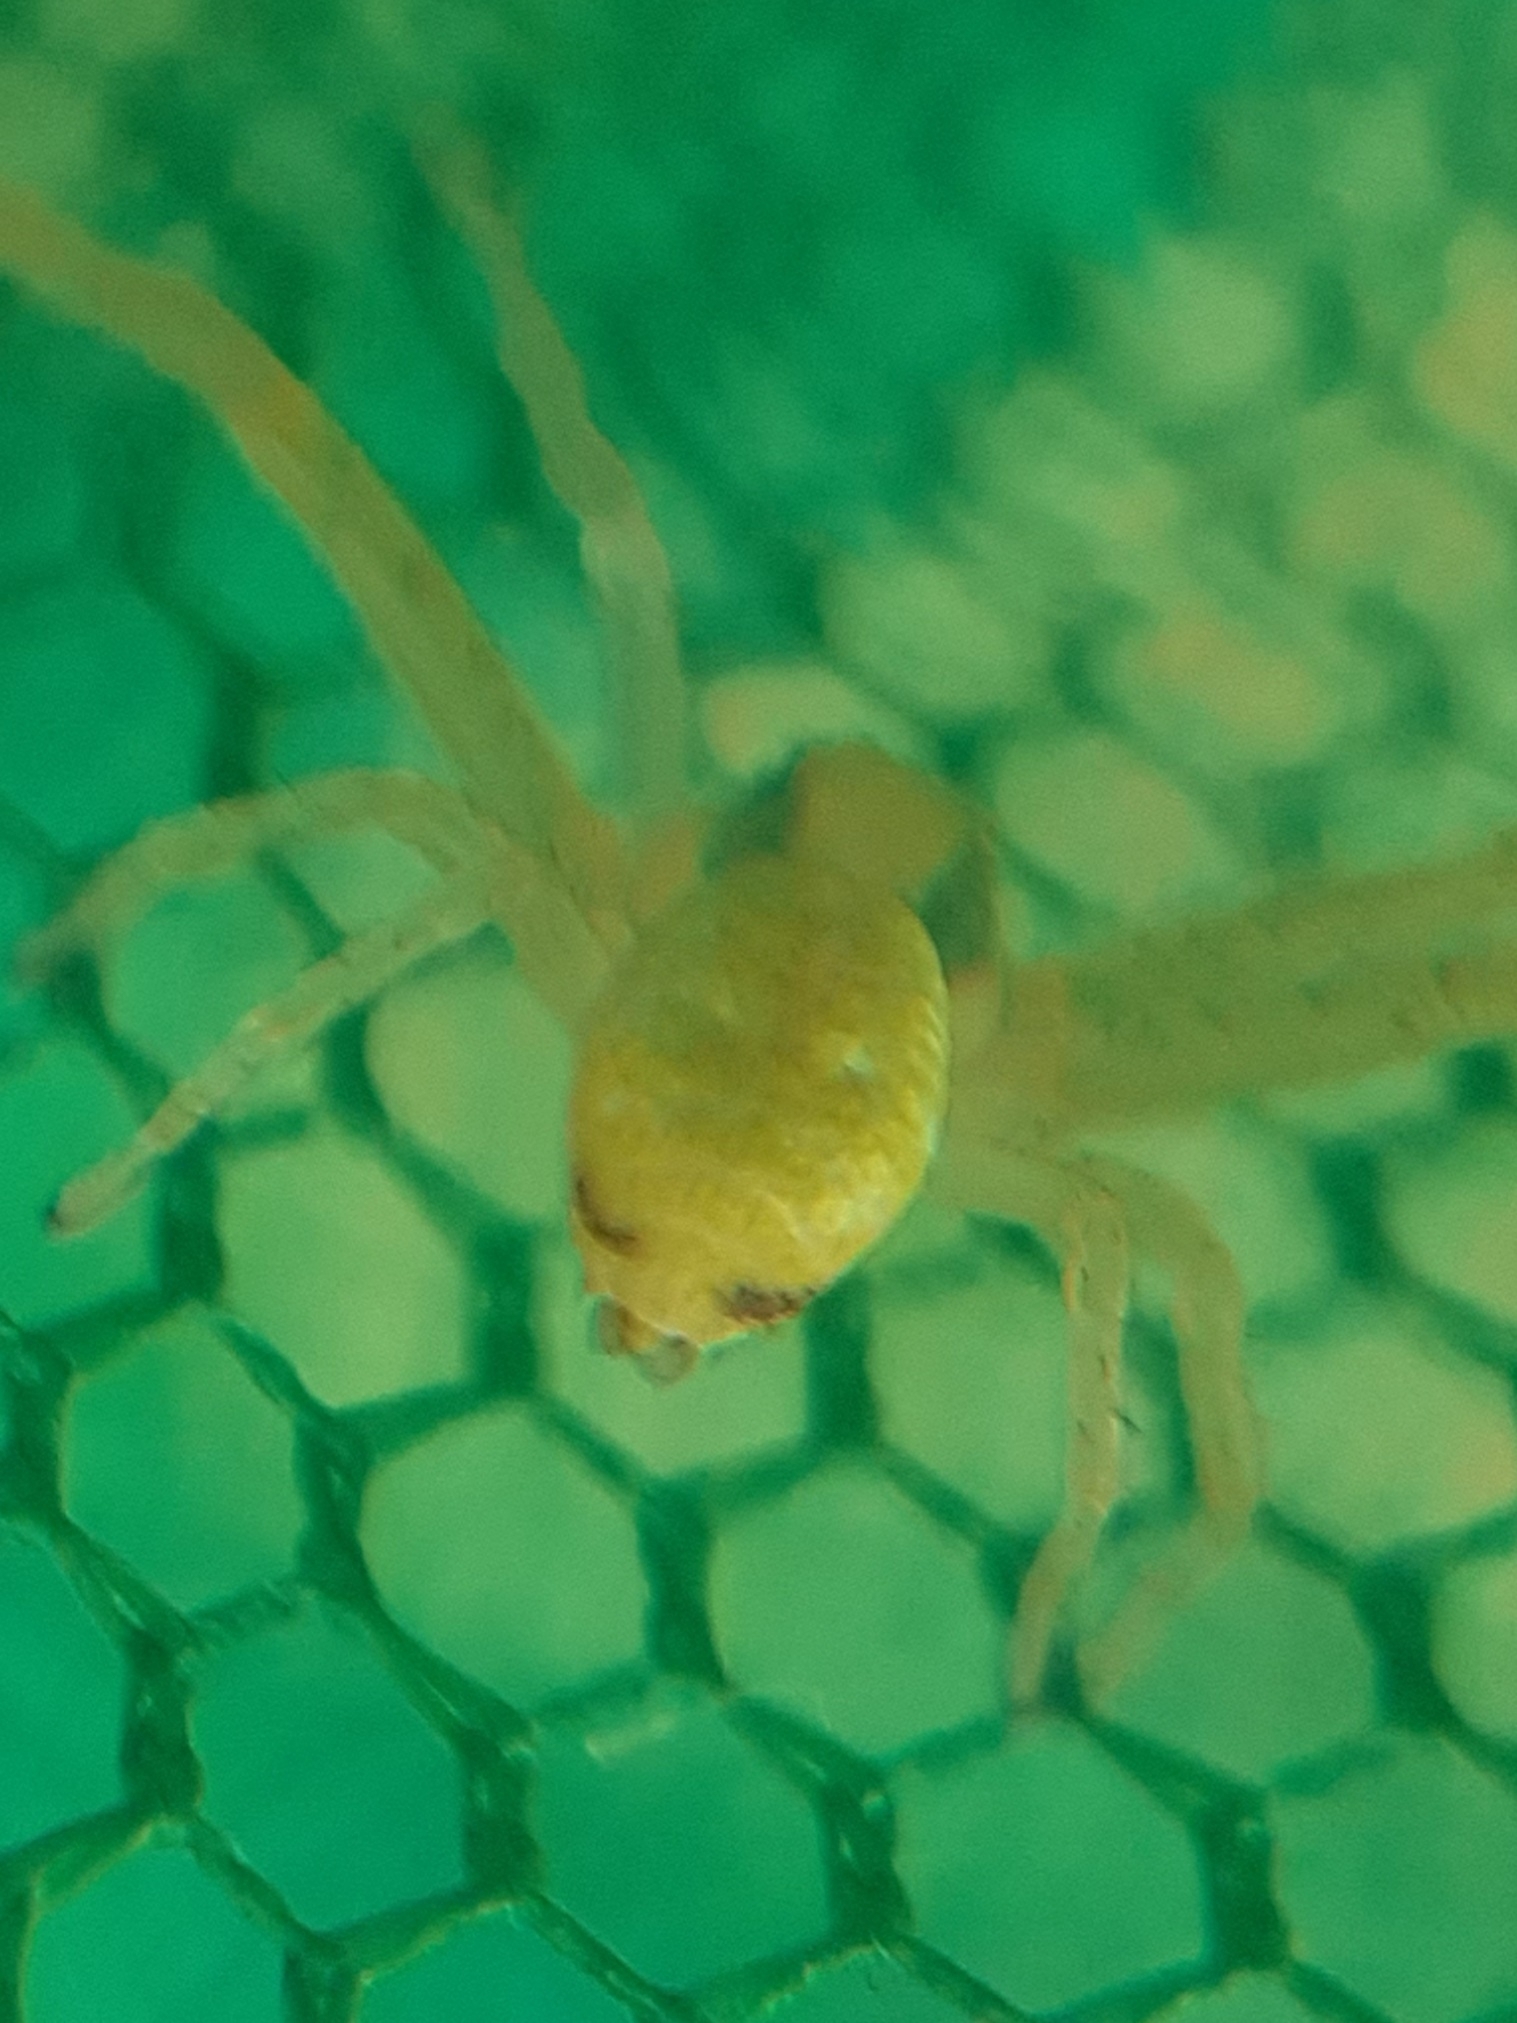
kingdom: Animalia
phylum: Arthropoda
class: Arachnida
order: Araneae
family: Thomisidae
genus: Ebrechtella
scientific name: Ebrechtella tricuspidata
